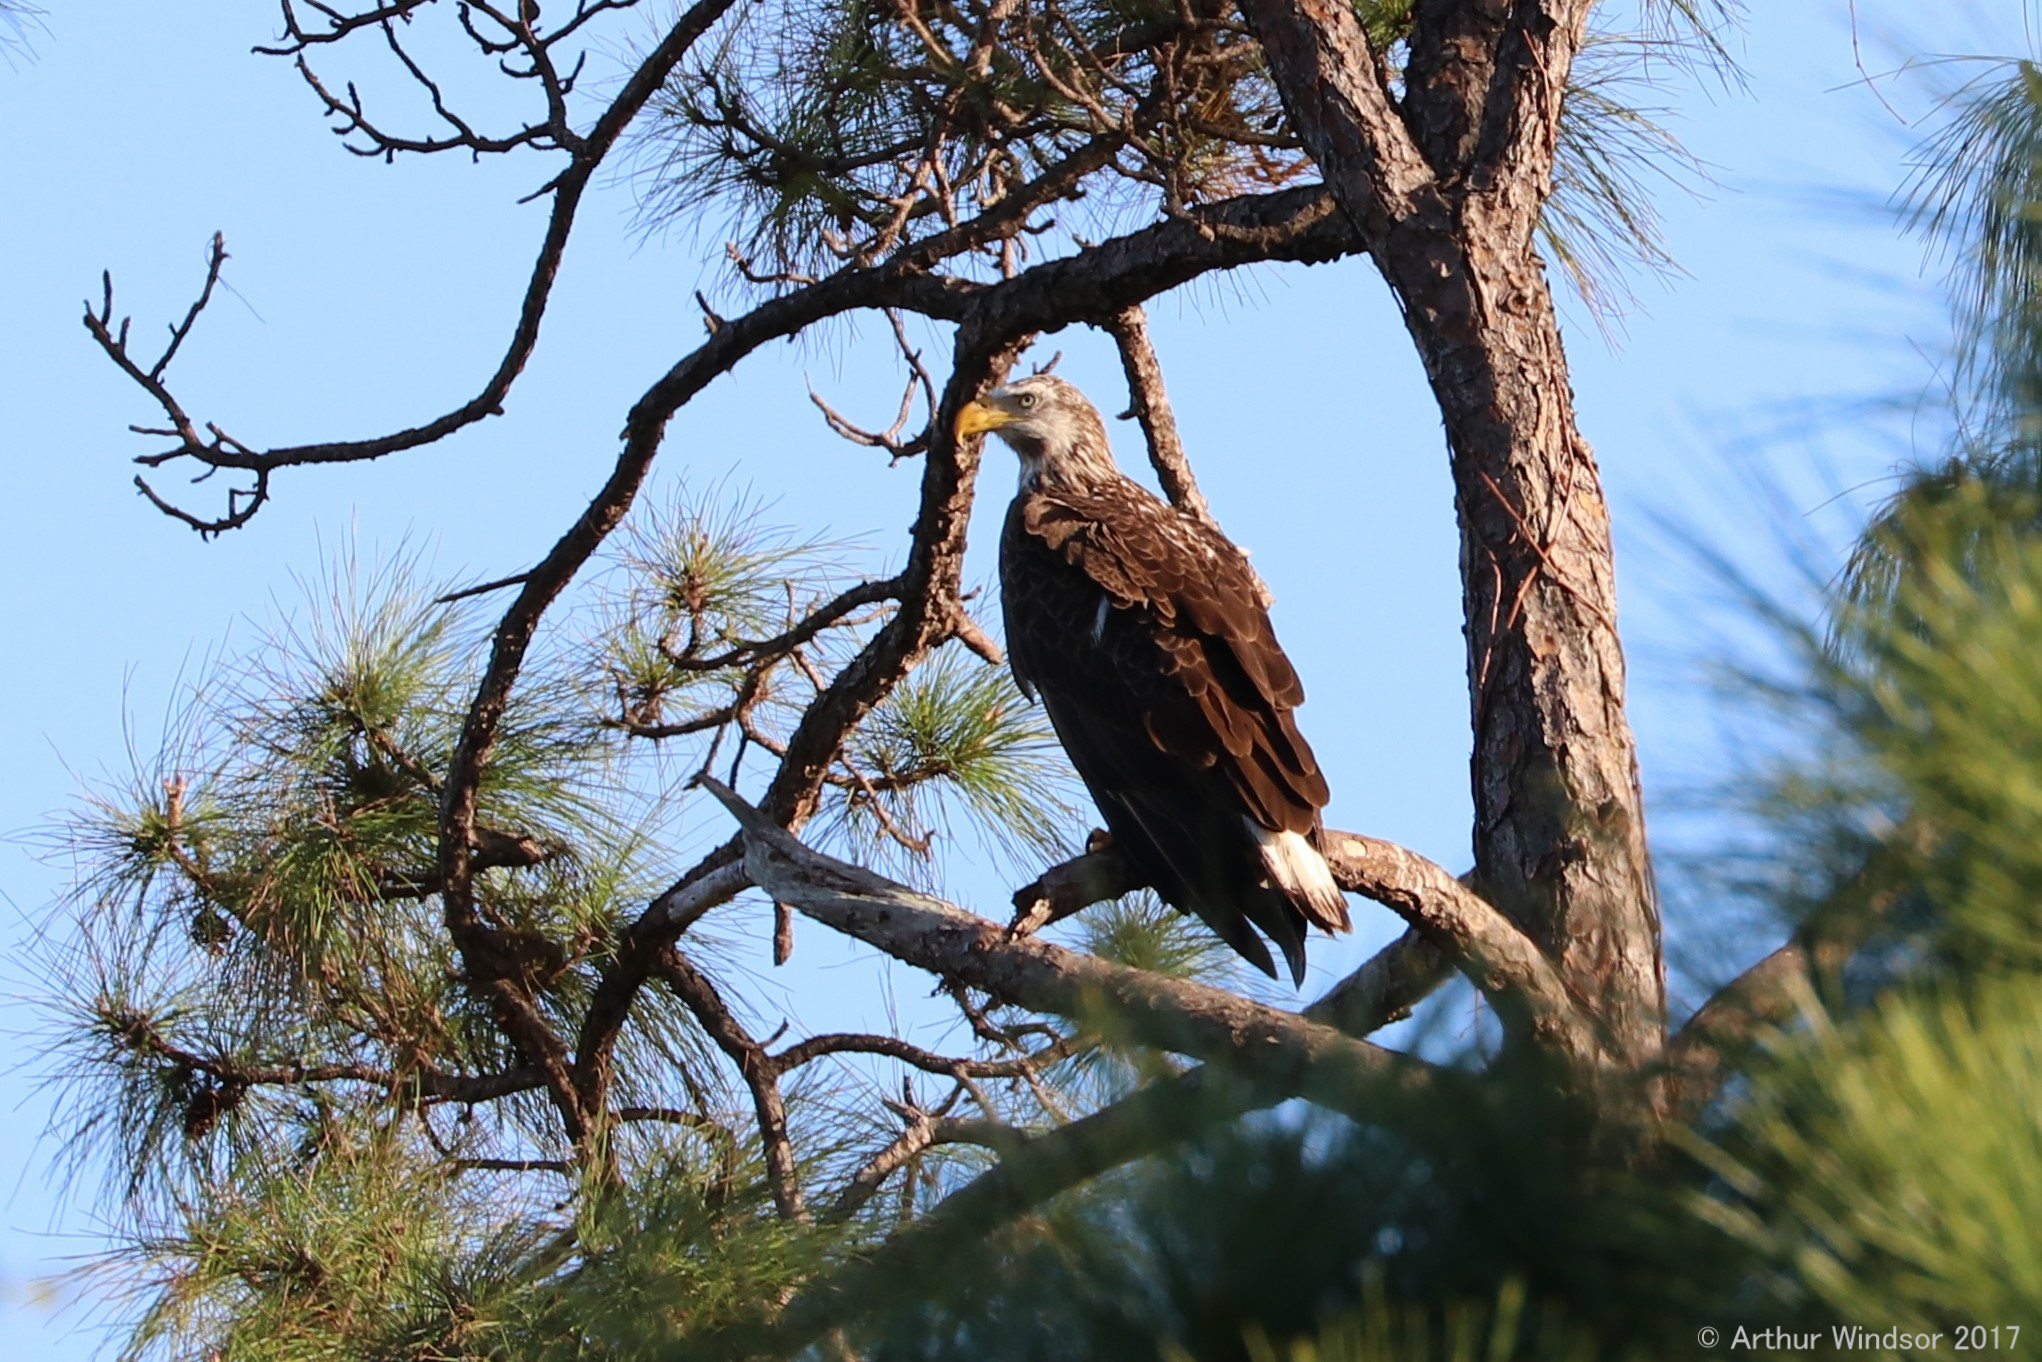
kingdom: Animalia
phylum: Chordata
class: Aves
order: Accipitriformes
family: Accipitridae
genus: Haliaeetus
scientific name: Haliaeetus leucocephalus
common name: Bald eagle
